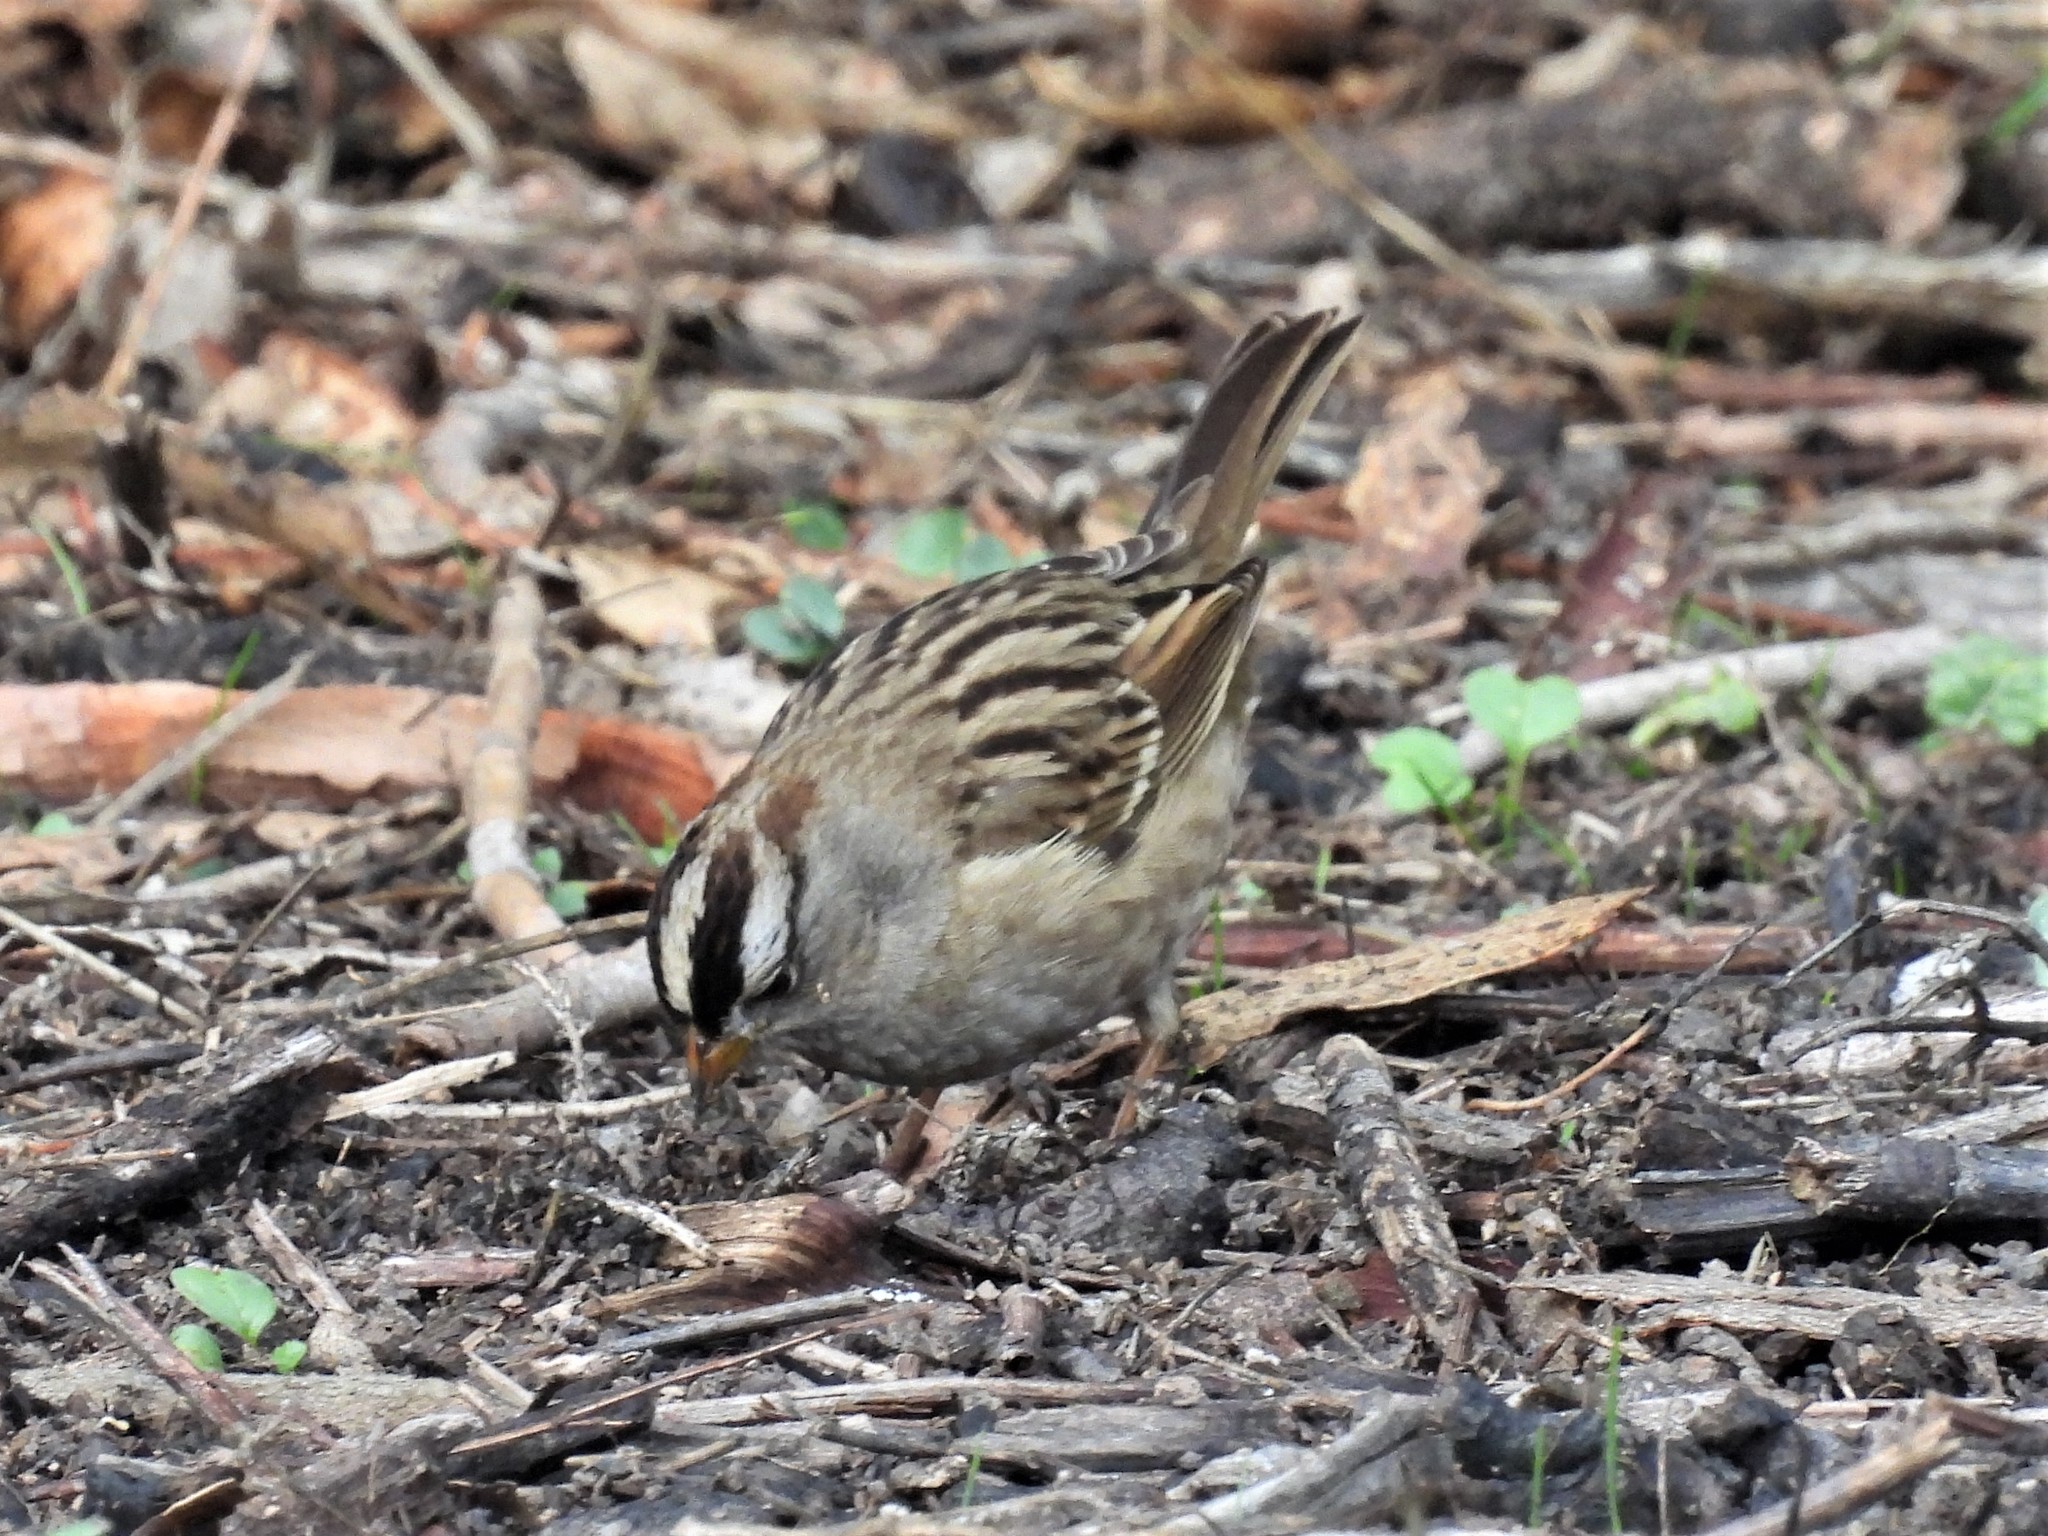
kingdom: Animalia
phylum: Chordata
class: Aves
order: Passeriformes
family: Passerellidae
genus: Zonotrichia
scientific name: Zonotrichia leucophrys
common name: White-crowned sparrow
